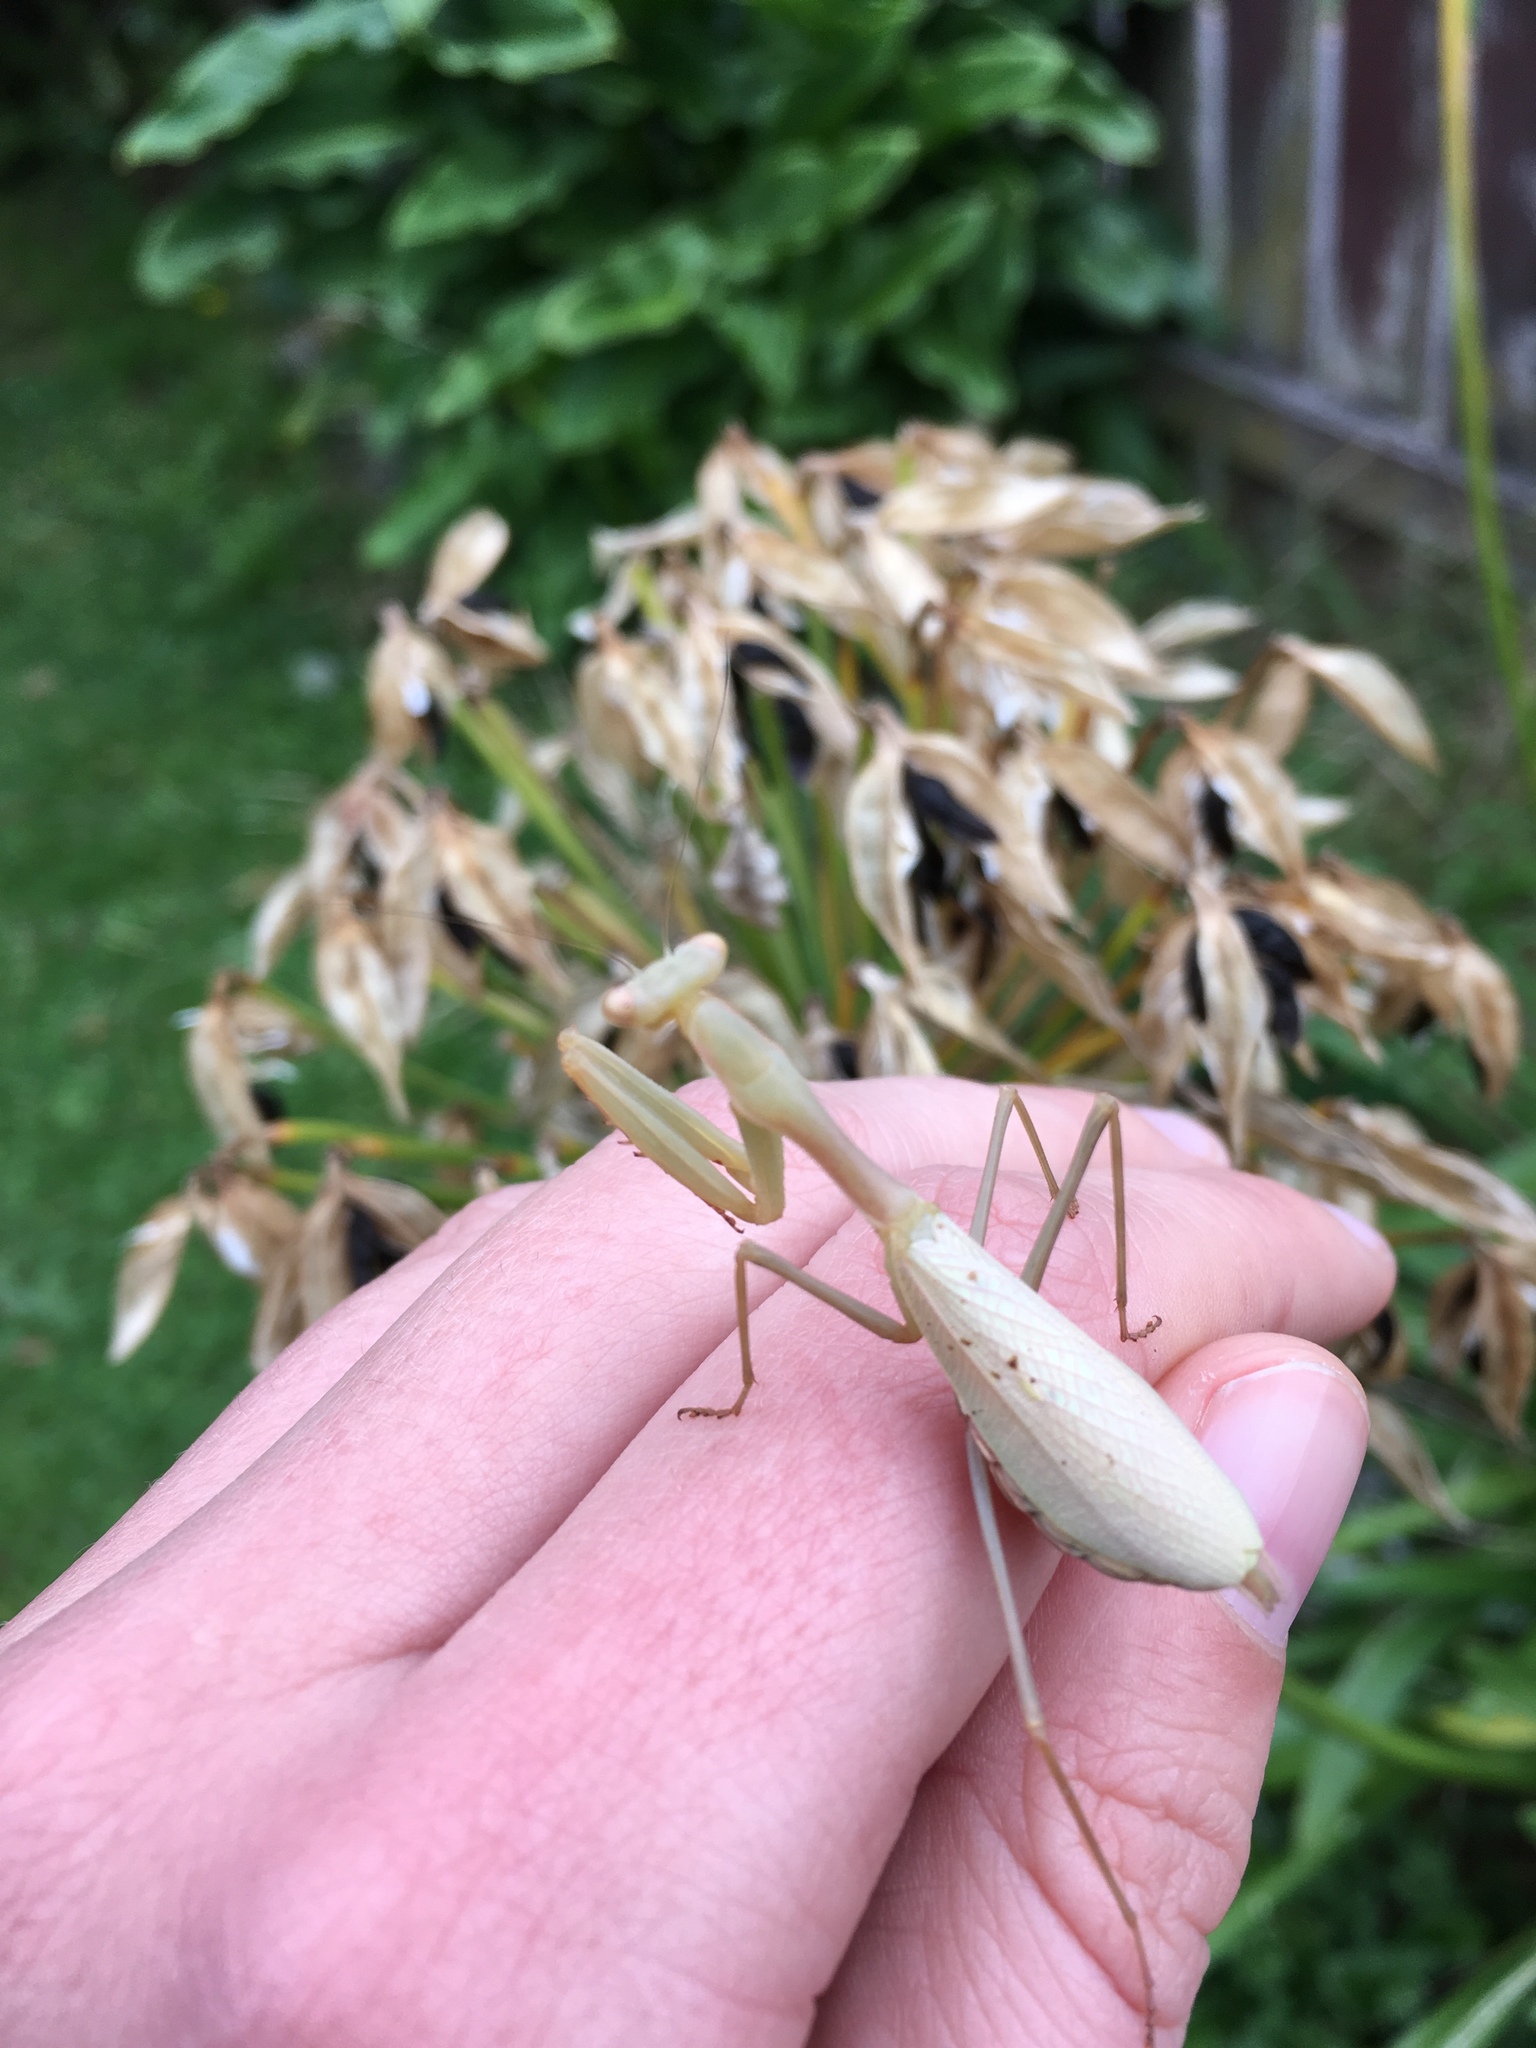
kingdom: Animalia
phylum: Arthropoda
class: Insecta
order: Mantodea
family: Miomantidae
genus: Miomantis
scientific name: Miomantis caffra
